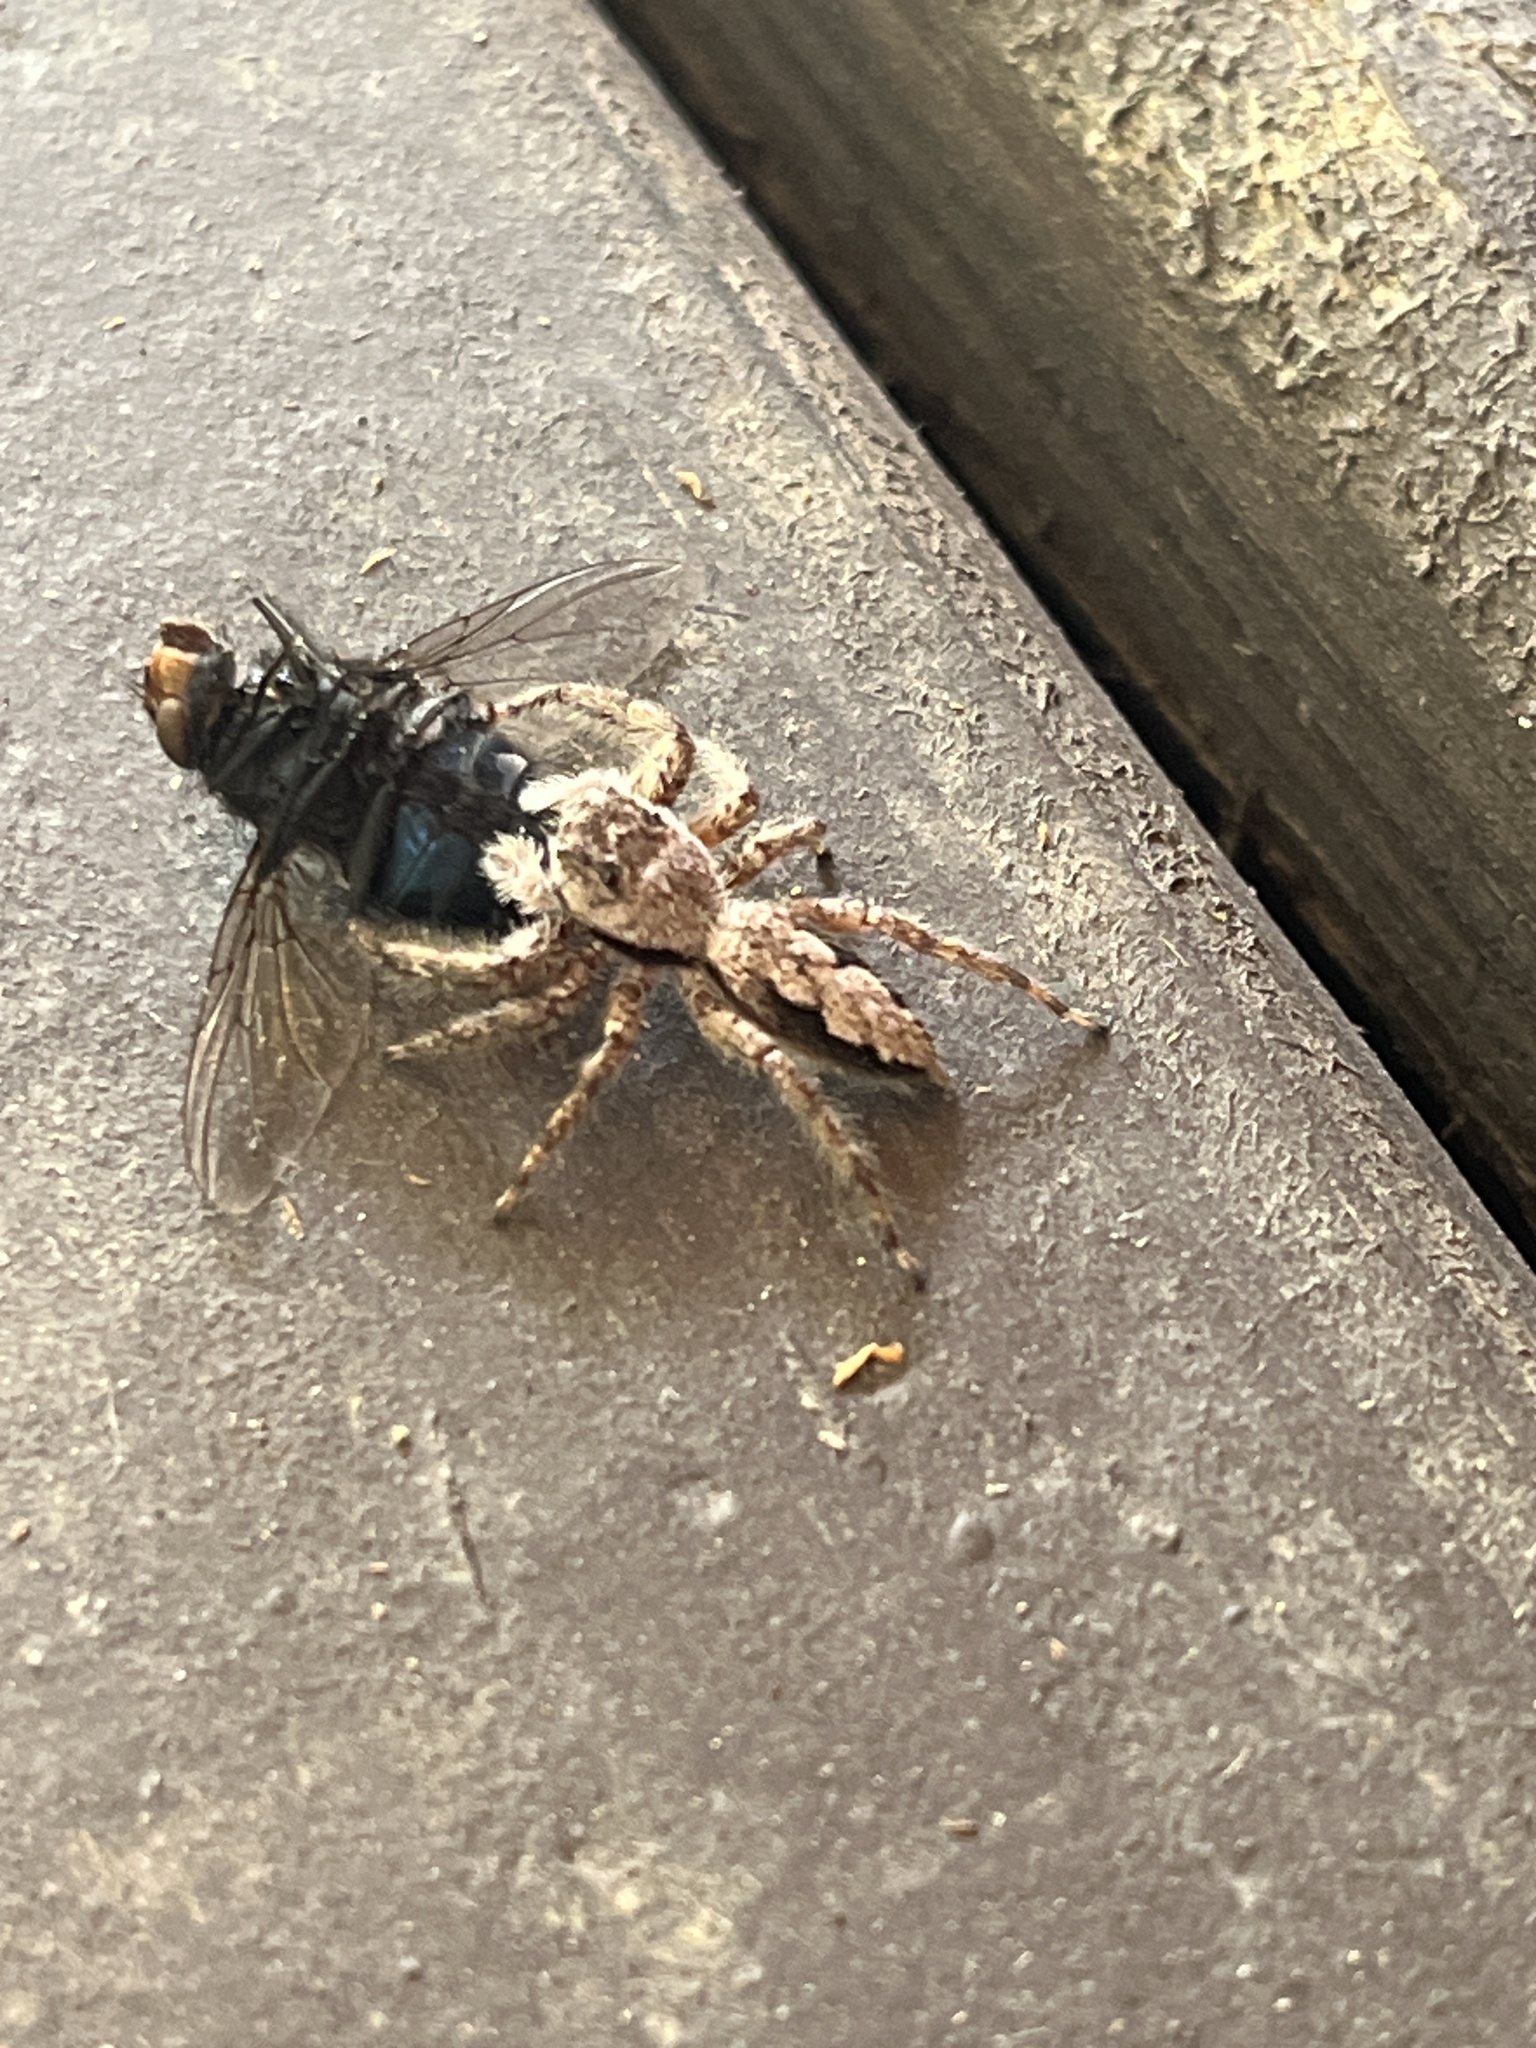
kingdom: Animalia
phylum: Arthropoda
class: Arachnida
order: Araneae
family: Salticidae
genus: Platycryptus
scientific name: Platycryptus undatus
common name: Tan jumping spider
